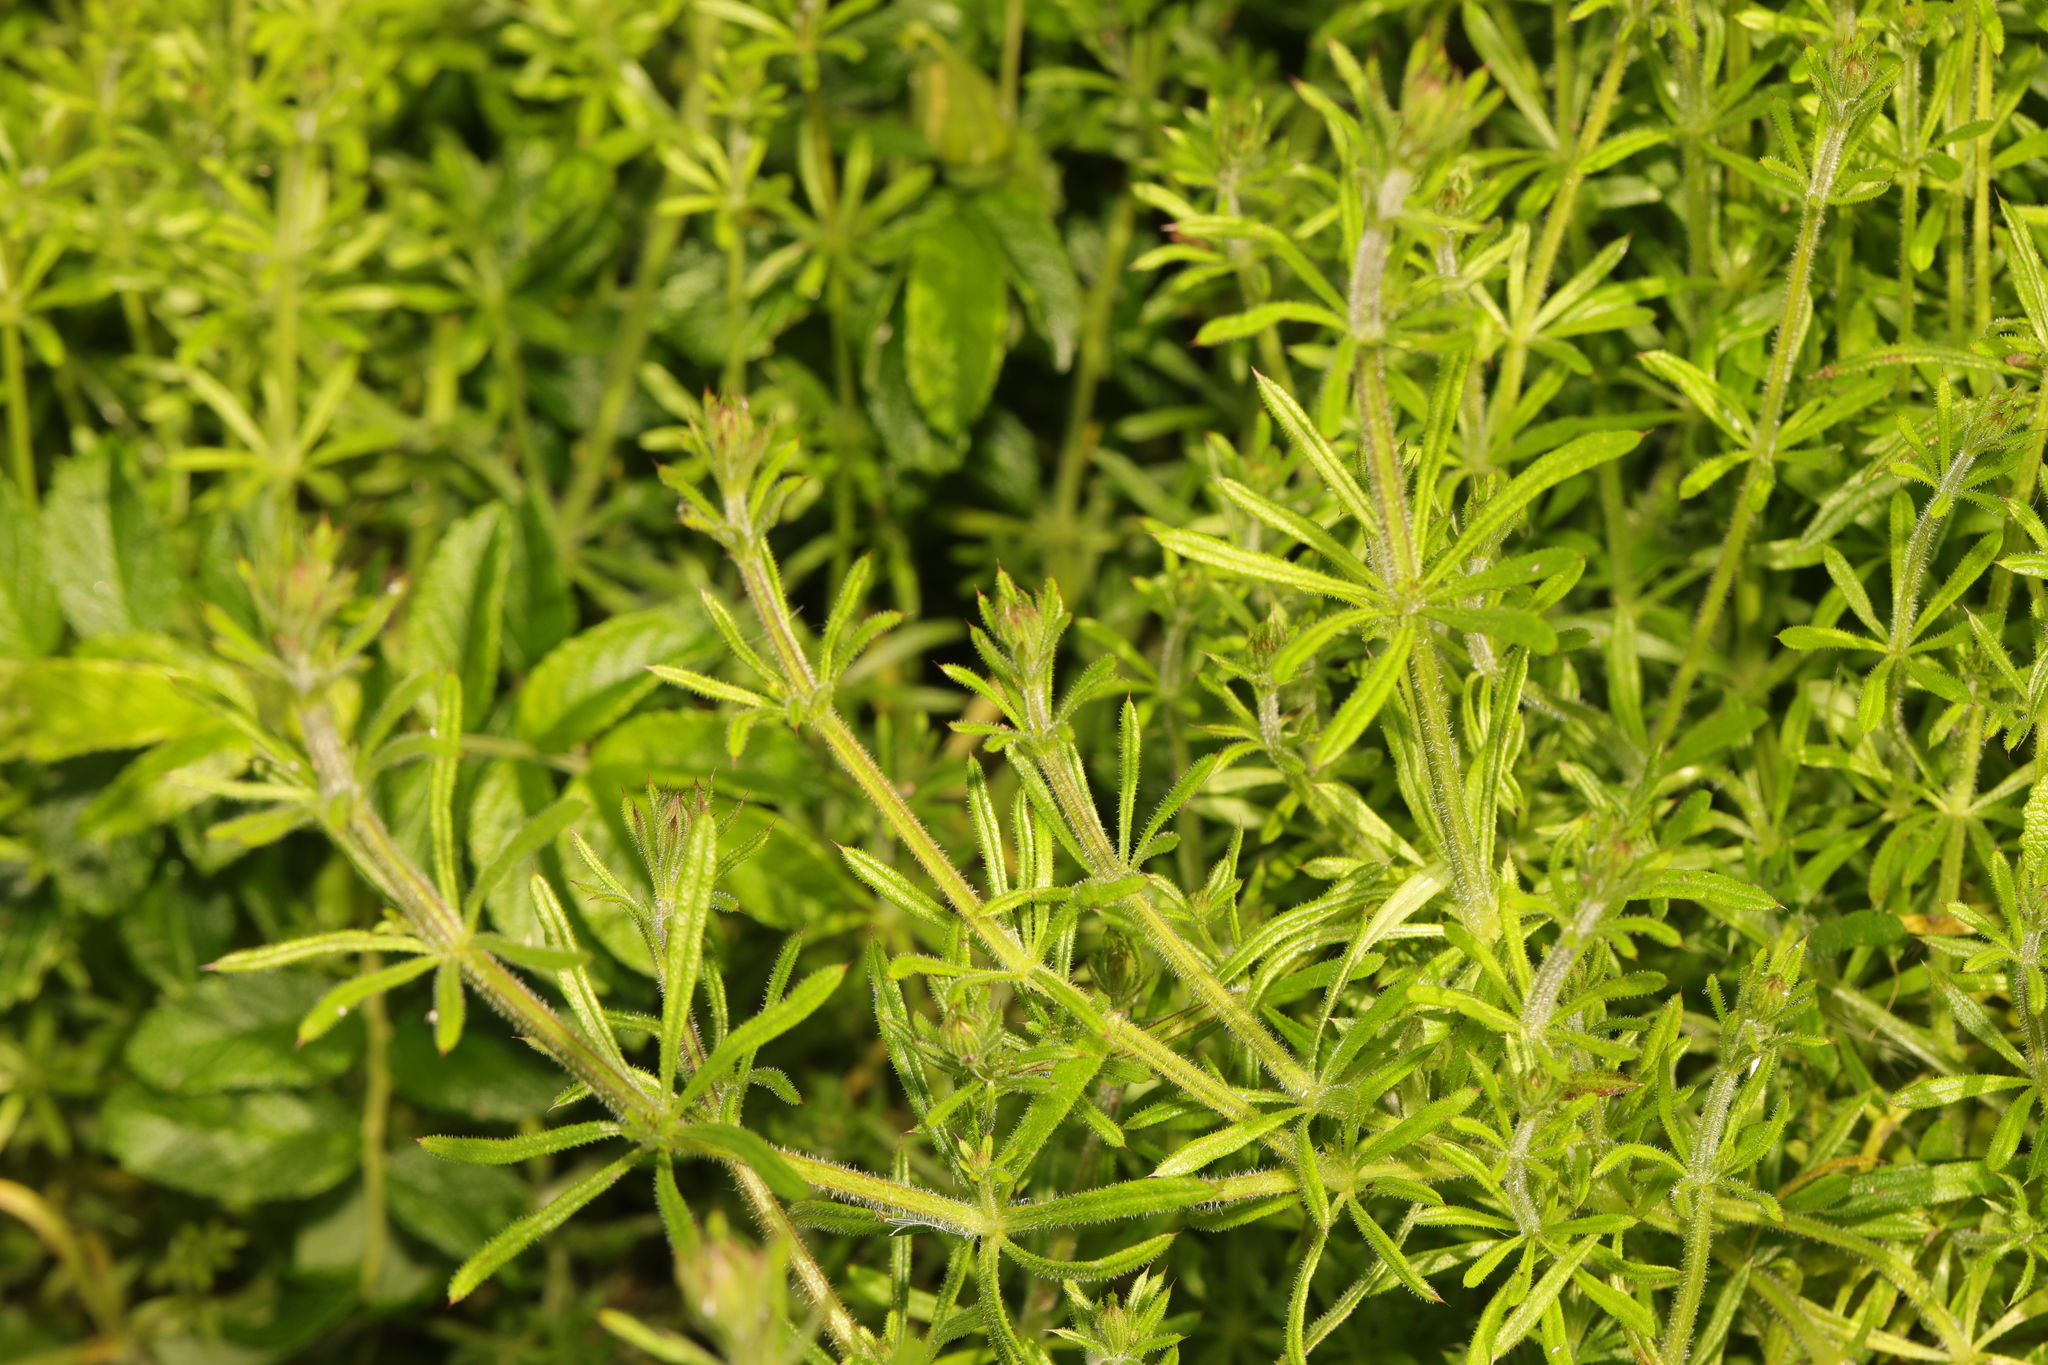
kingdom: Plantae
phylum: Tracheophyta
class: Magnoliopsida
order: Gentianales
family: Rubiaceae
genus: Galium
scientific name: Galium aparine
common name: Cleavers
